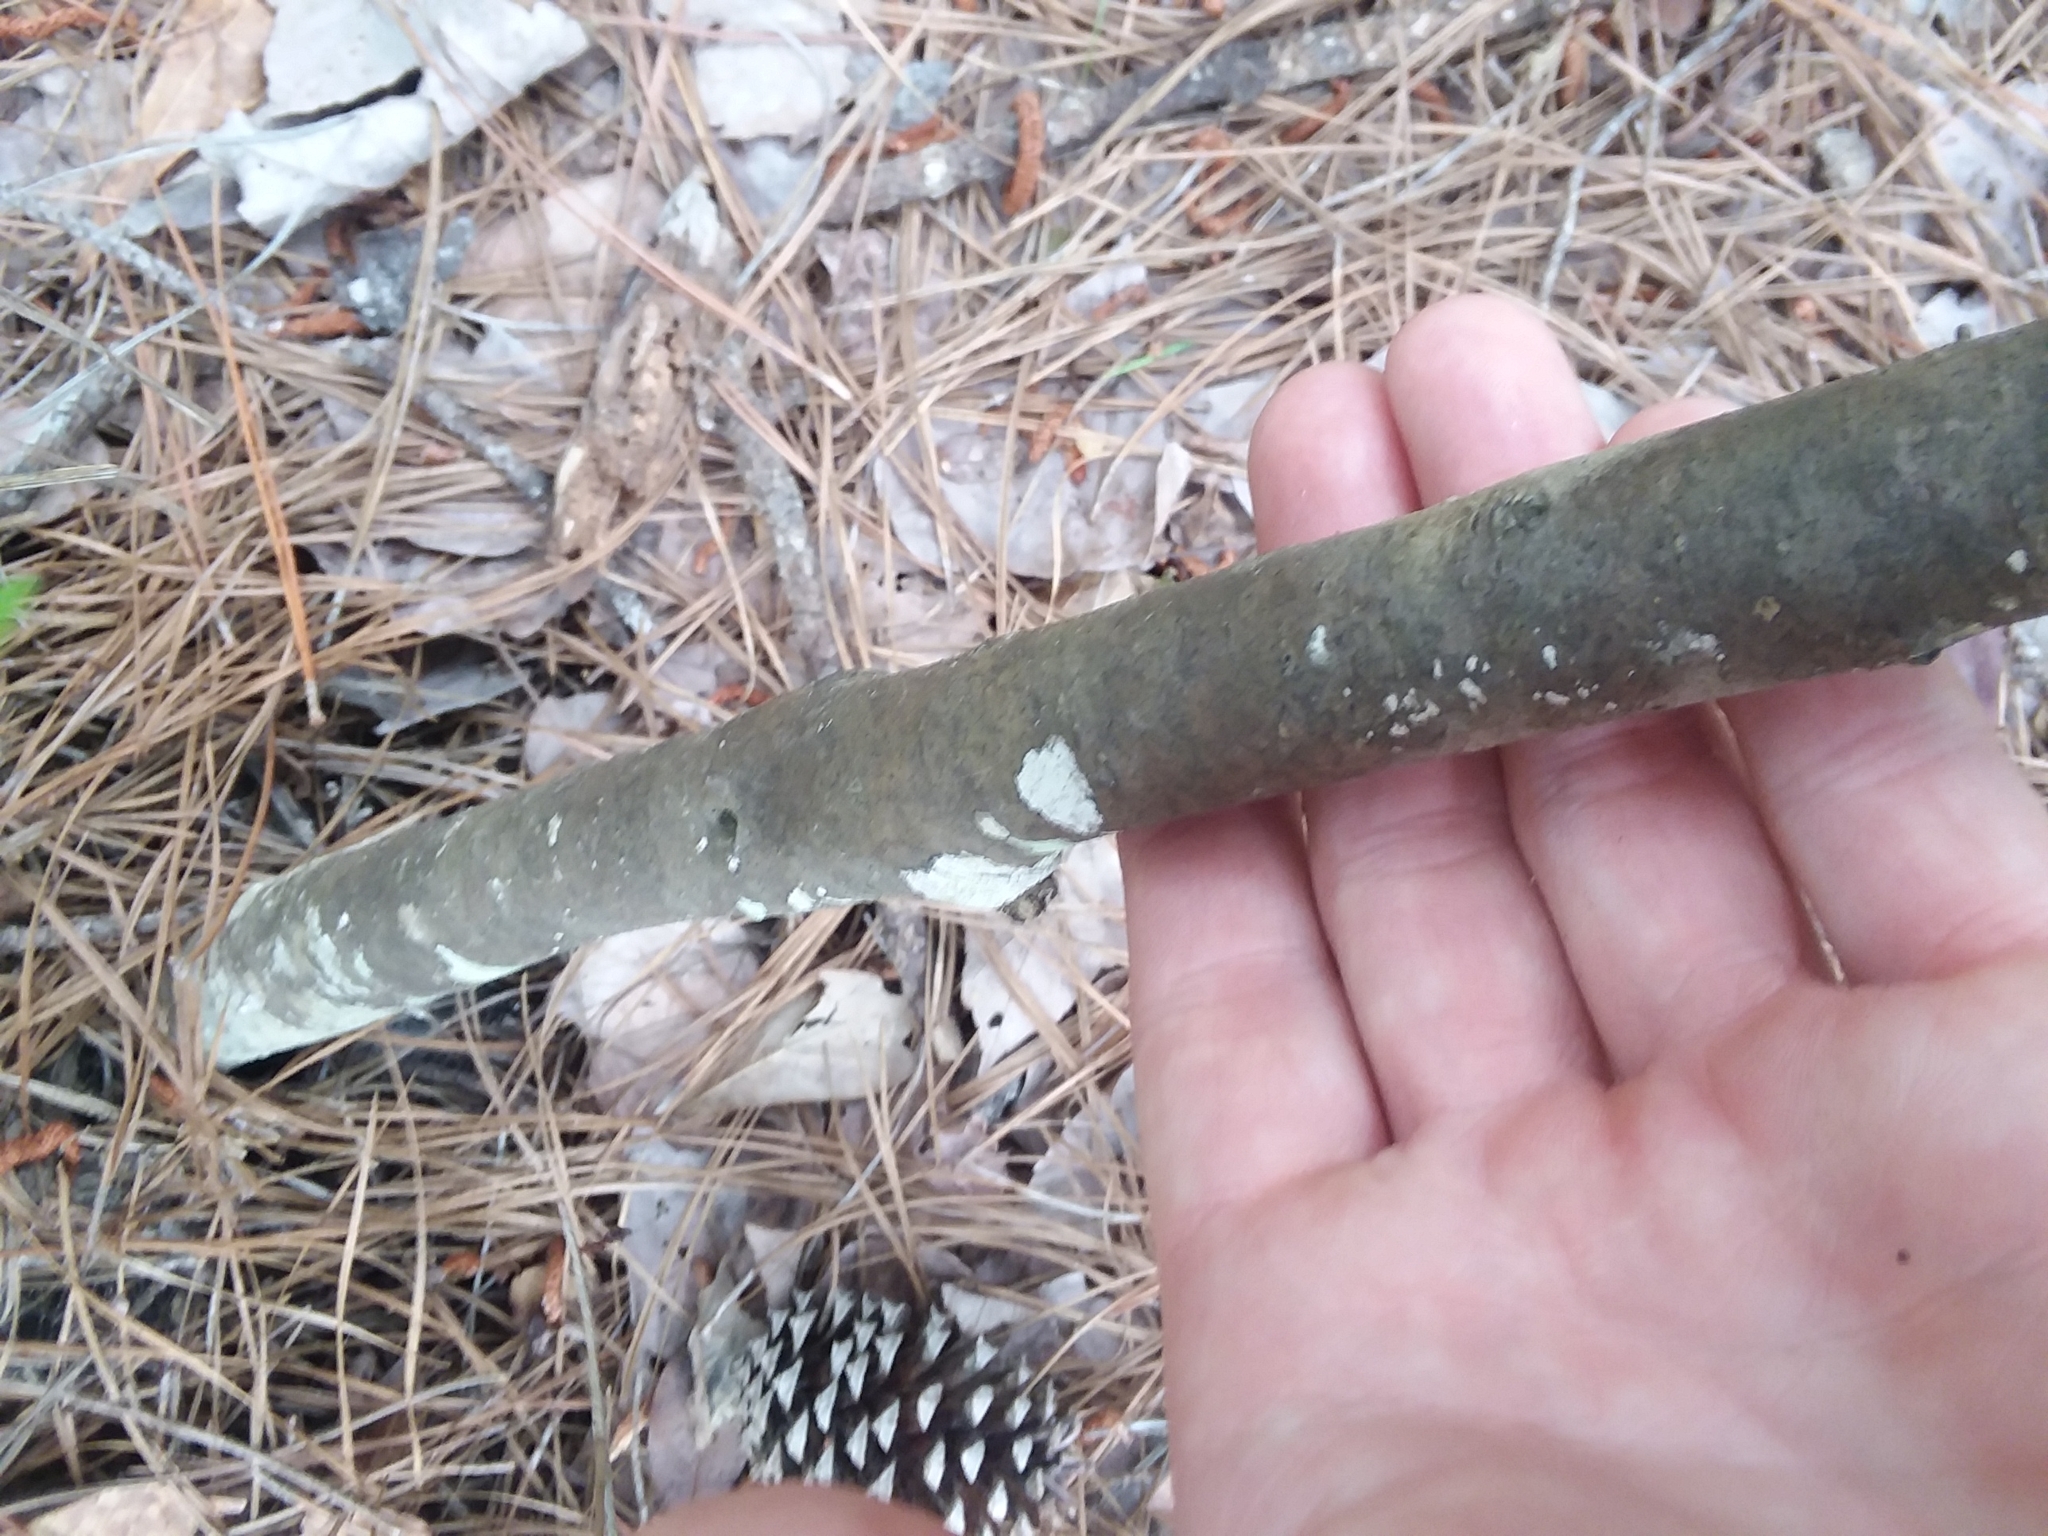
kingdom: Plantae
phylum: Tracheophyta
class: Magnoliopsida
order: Aquifoliales
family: Aquifoliaceae
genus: Ilex
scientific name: Ilex myrtifolia
